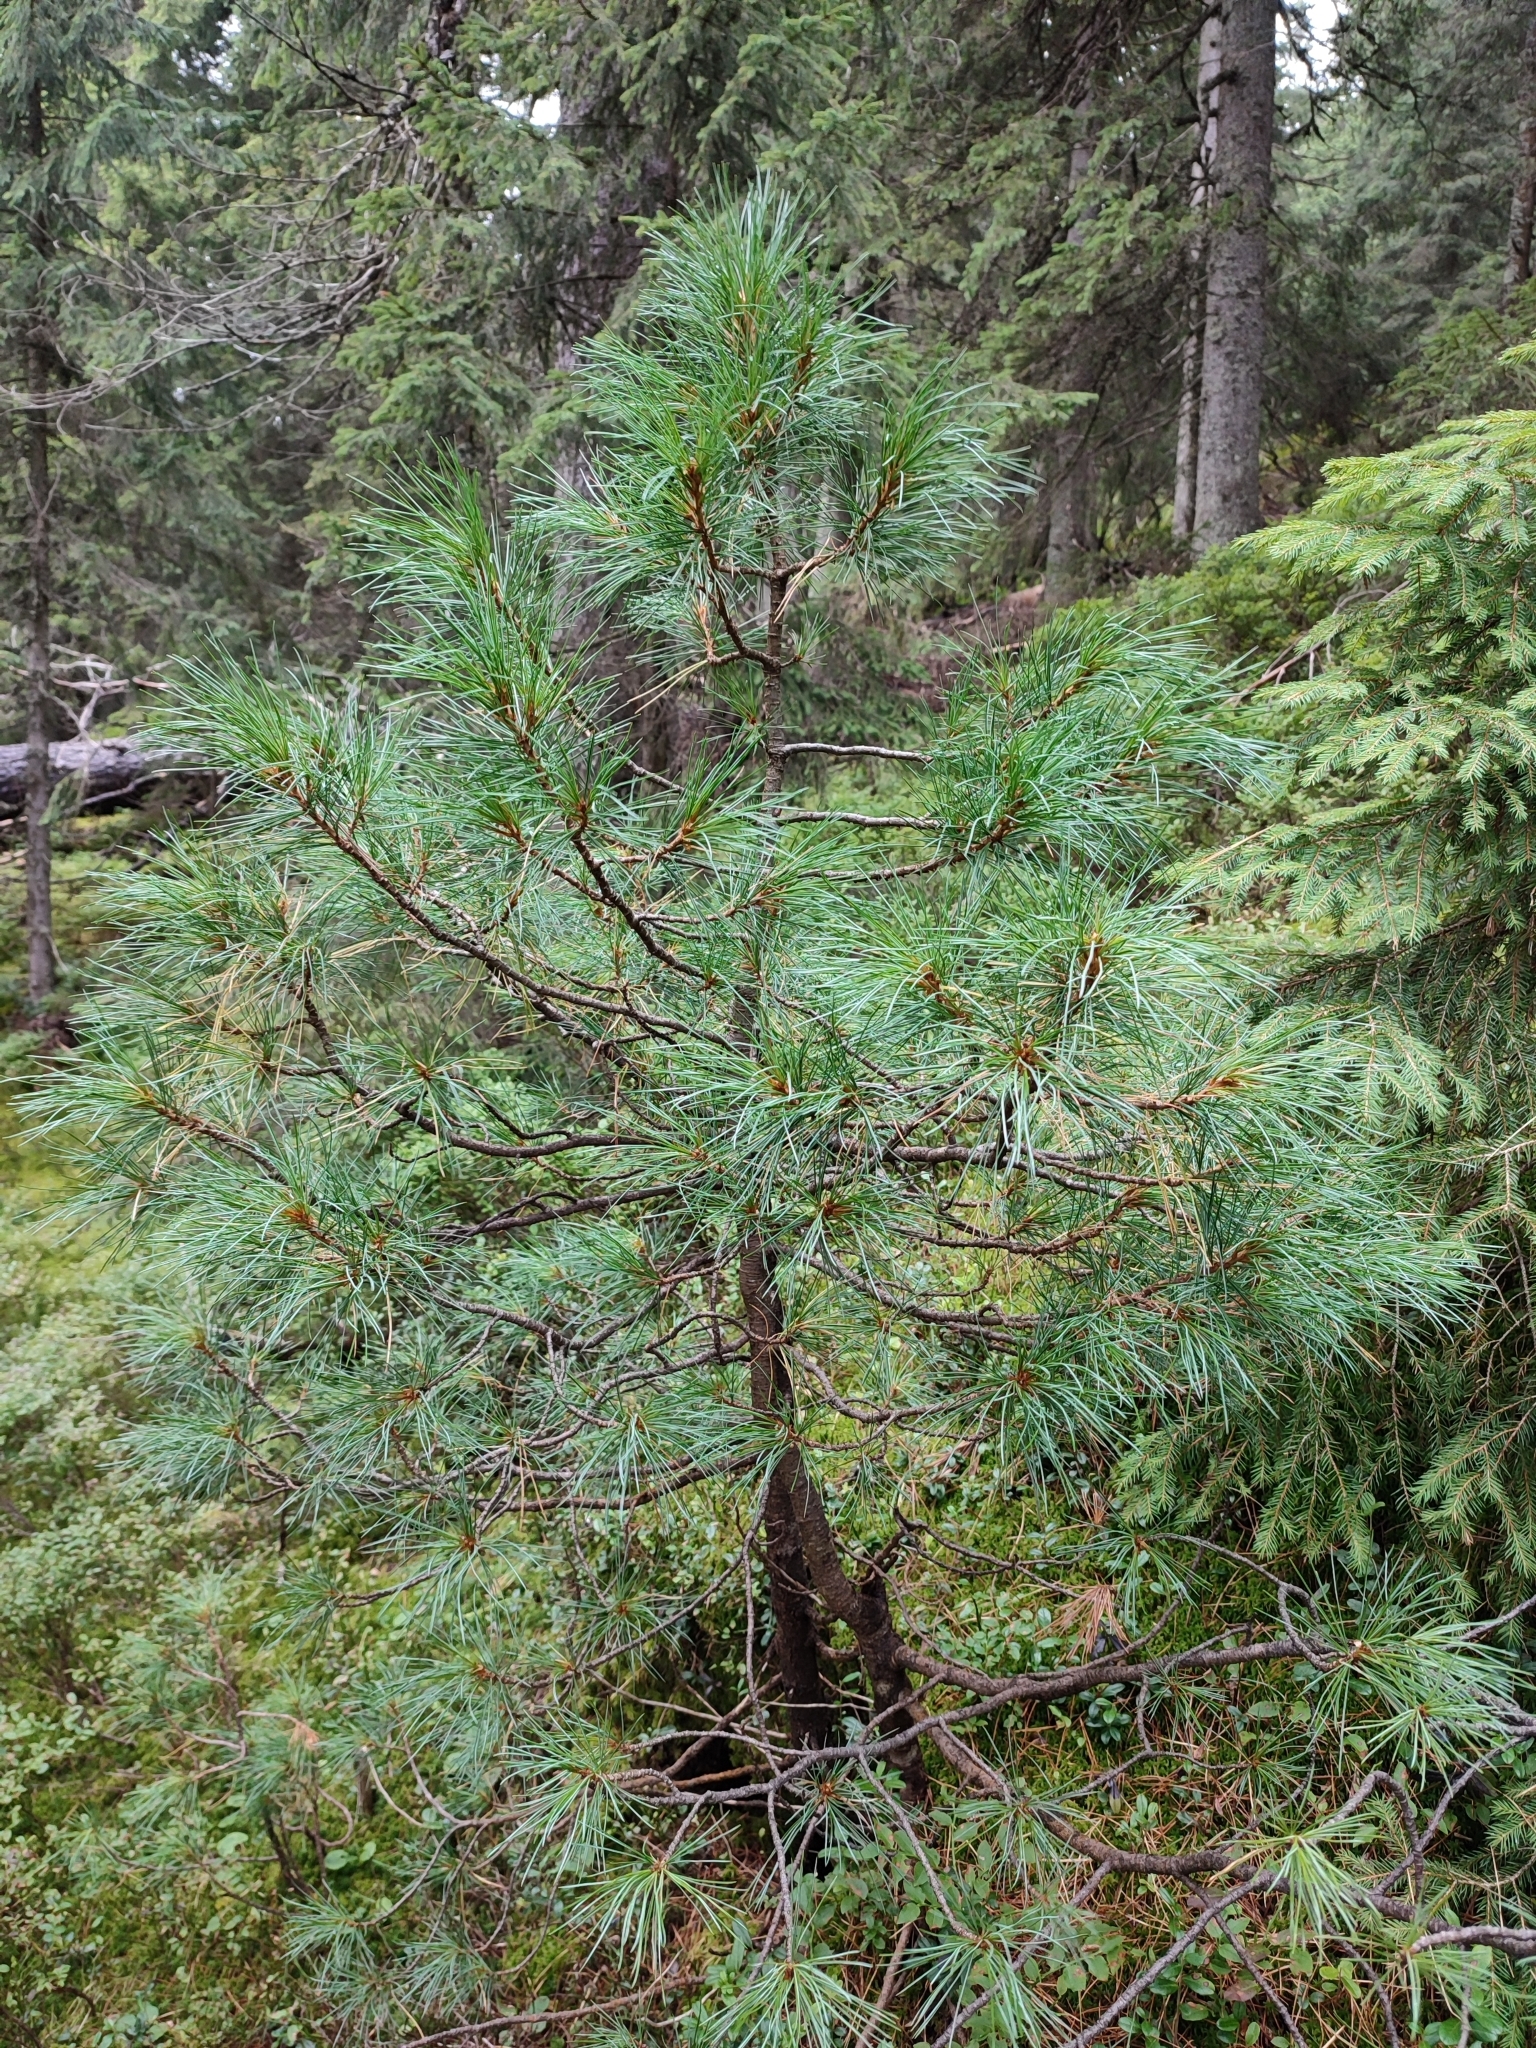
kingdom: Plantae
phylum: Tracheophyta
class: Pinopsida
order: Pinales
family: Pinaceae
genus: Pinus
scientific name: Pinus cembra
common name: Arolla pine
